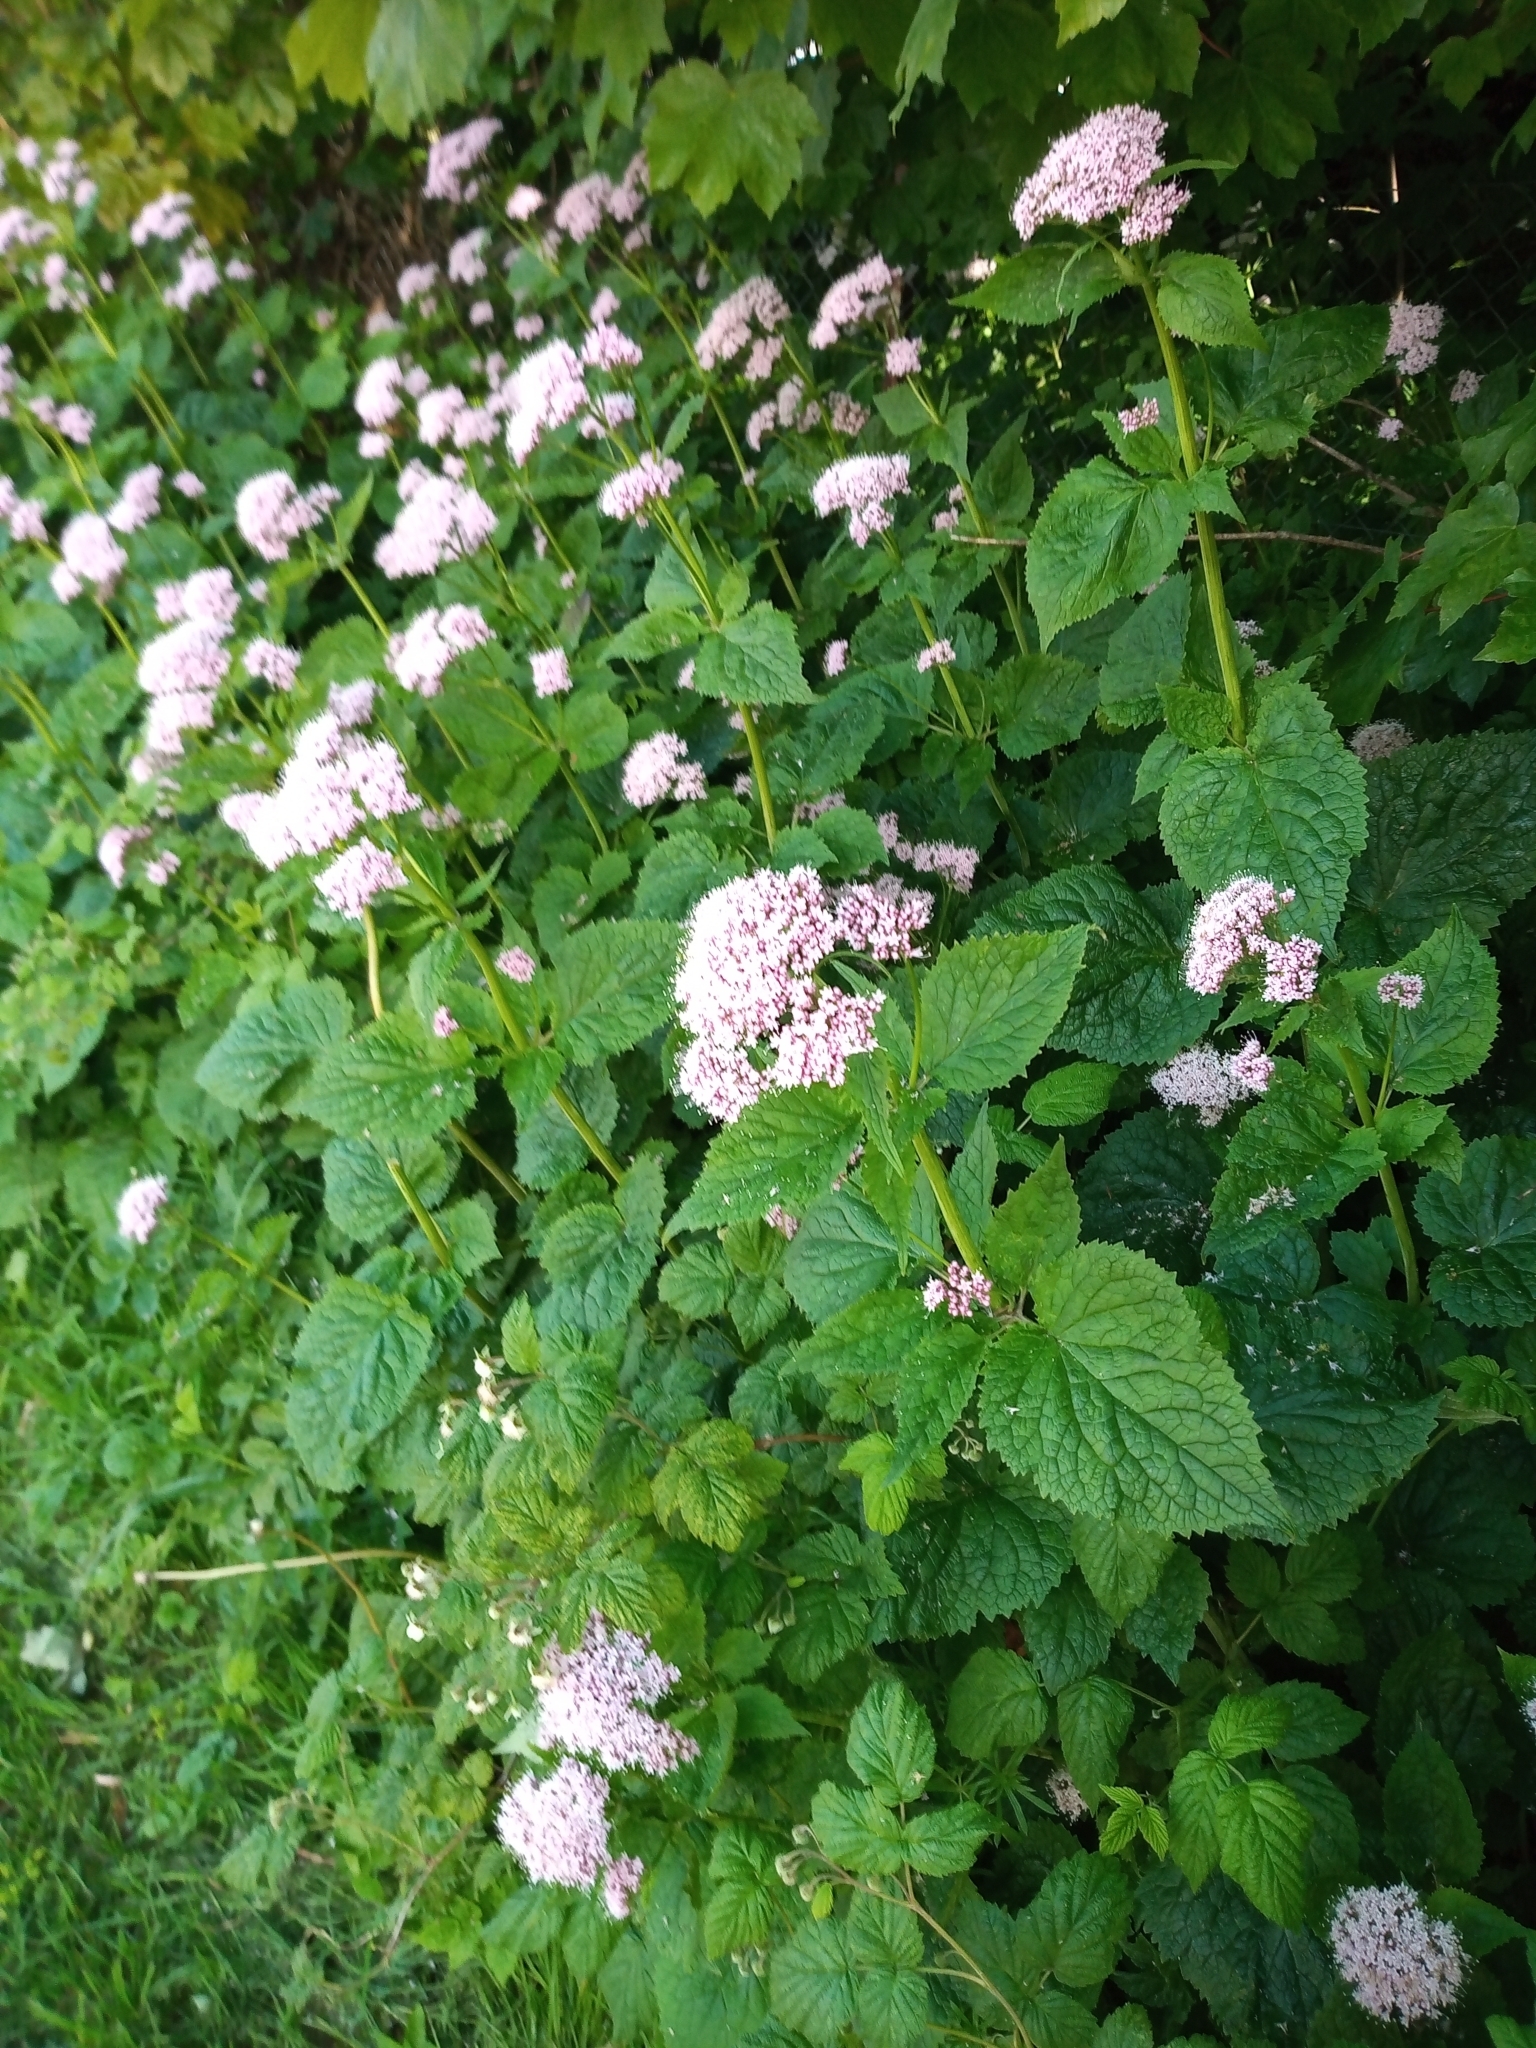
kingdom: Plantae
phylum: Tracheophyta
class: Magnoliopsida
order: Dipsacales
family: Caprifoliaceae
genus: Valeriana
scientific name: Valeriana pyrenaica
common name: Pyrenean valerian
